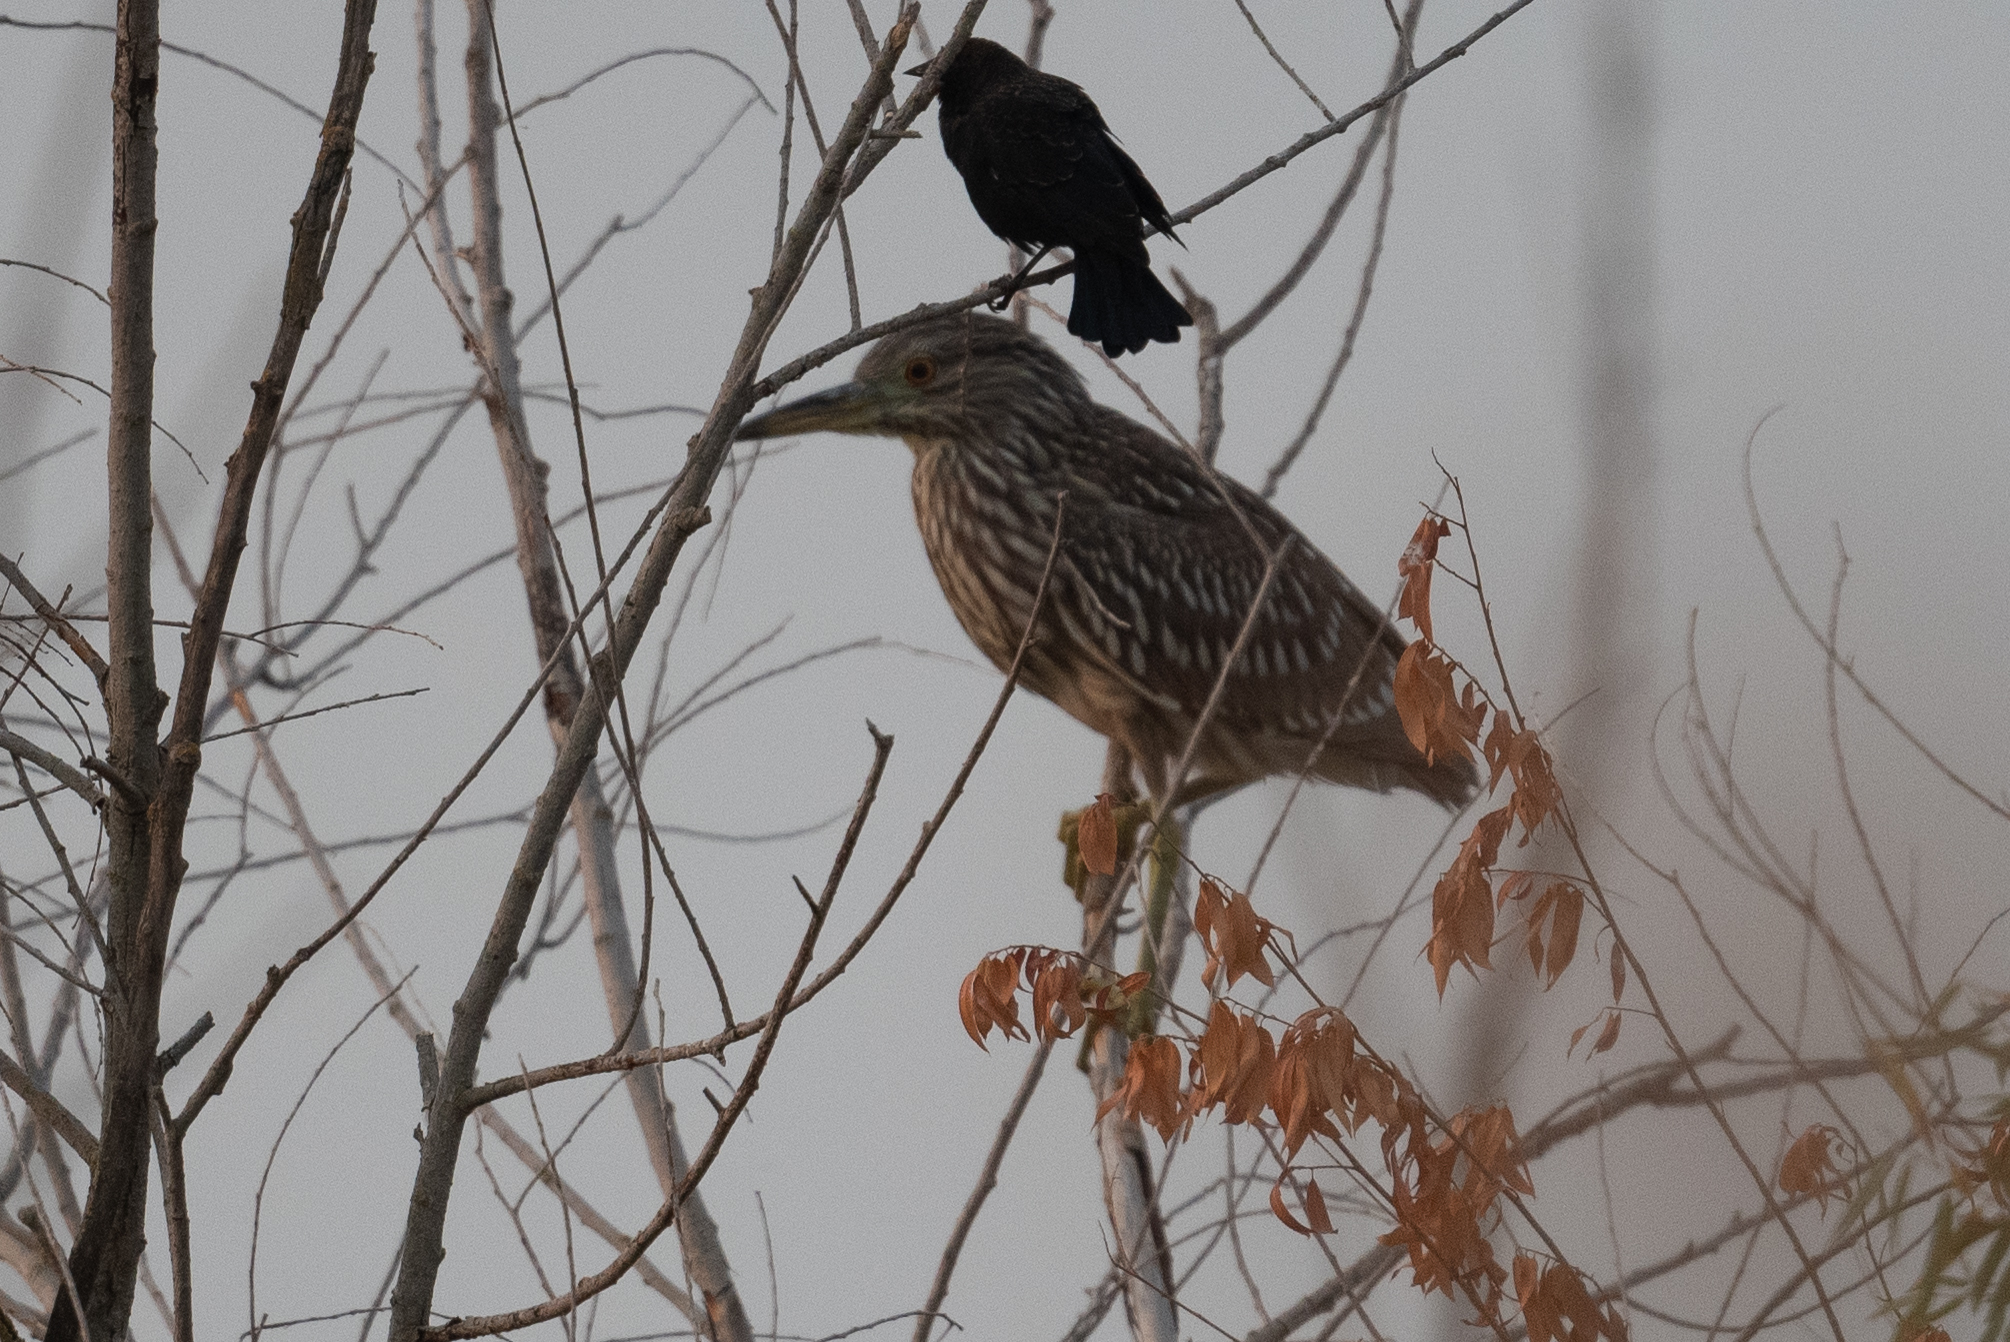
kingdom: Animalia
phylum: Chordata
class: Aves
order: Pelecaniformes
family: Ardeidae
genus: Nycticorax
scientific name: Nycticorax nycticorax
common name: Black-crowned night heron
